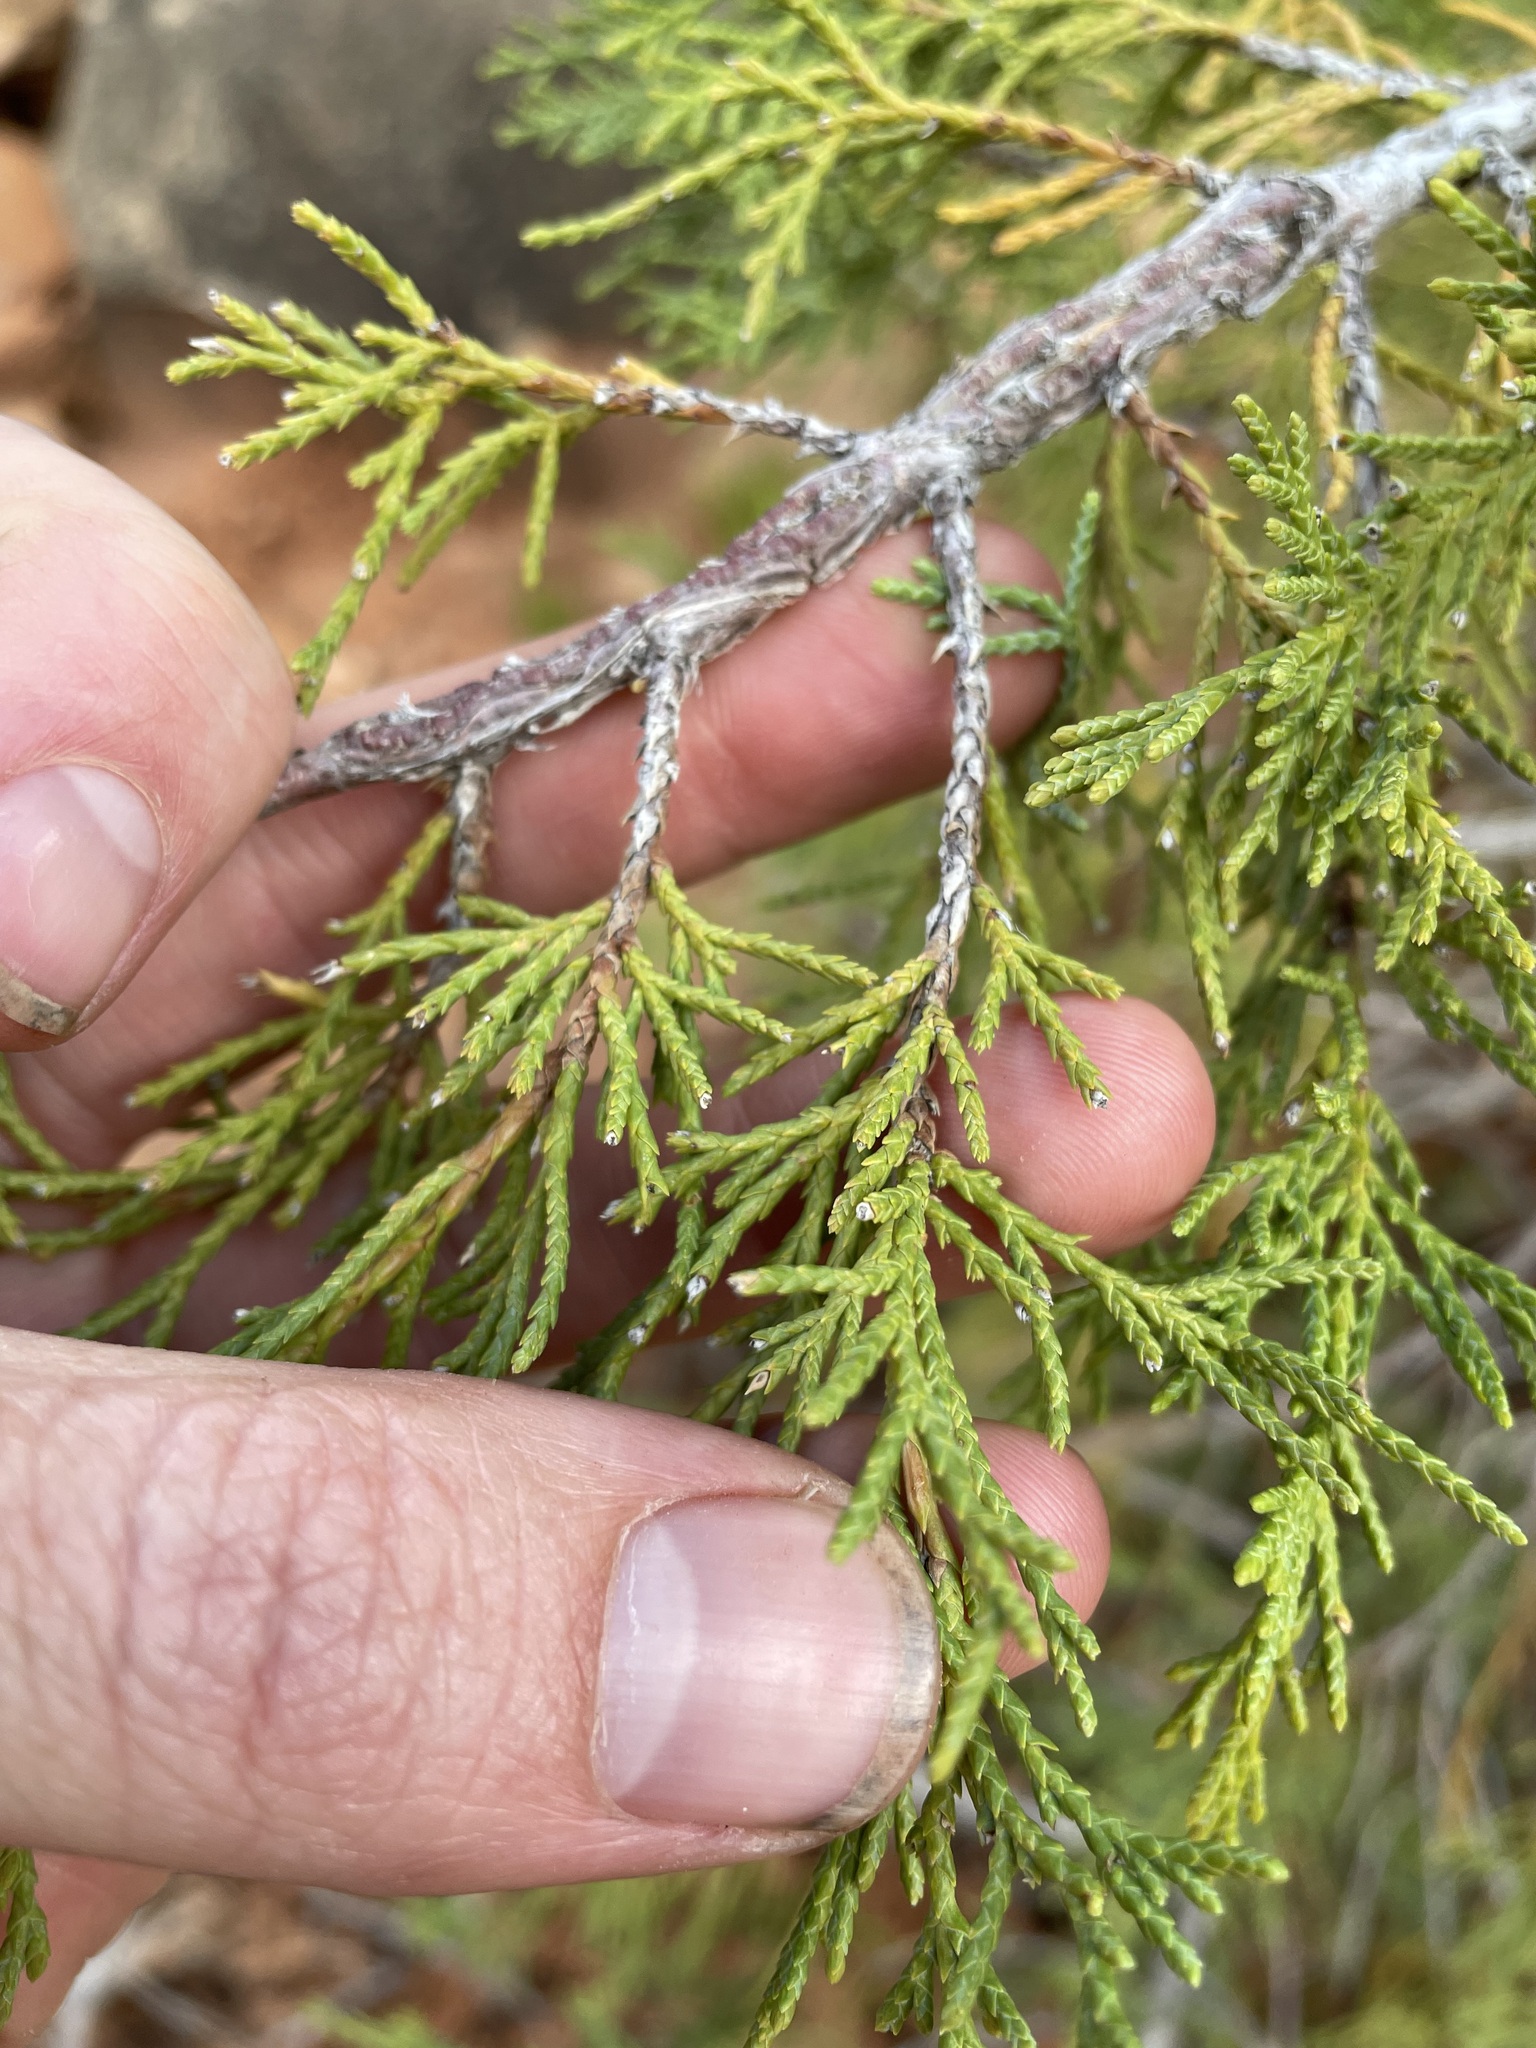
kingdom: Plantae
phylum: Tracheophyta
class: Pinopsida
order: Pinales
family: Cupressaceae
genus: Juniperus
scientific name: Juniperus scopulorum
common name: Rocky mountain juniper
